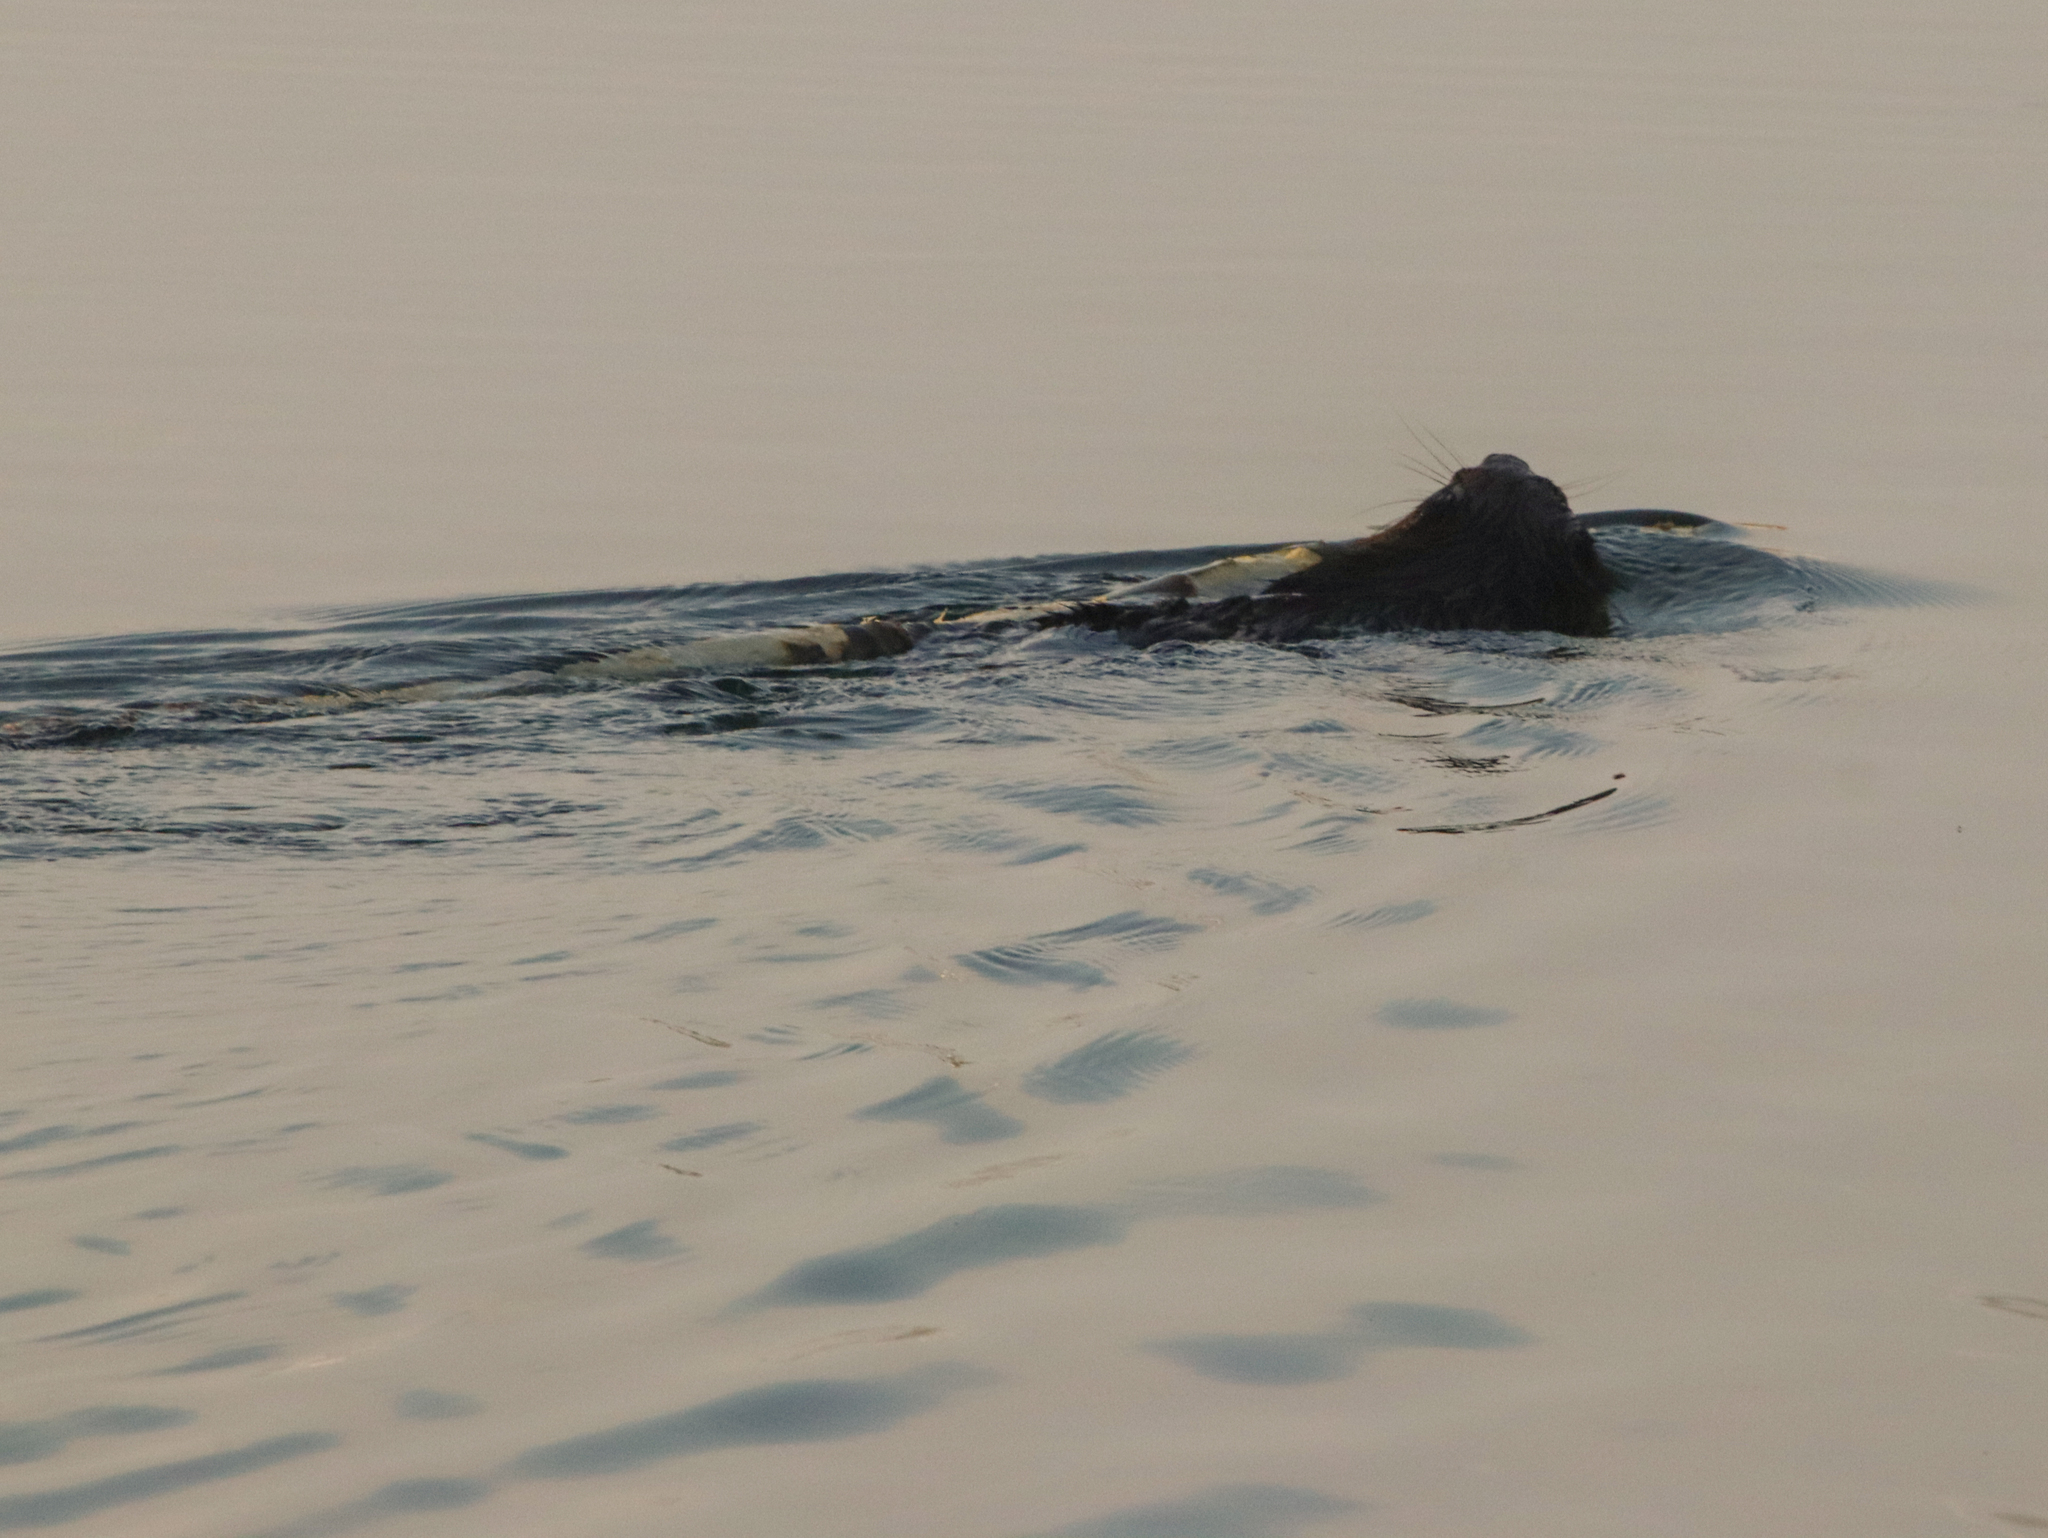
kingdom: Animalia
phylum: Chordata
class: Mammalia
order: Rodentia
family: Castoridae
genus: Castor
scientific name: Castor canadensis
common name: American beaver
